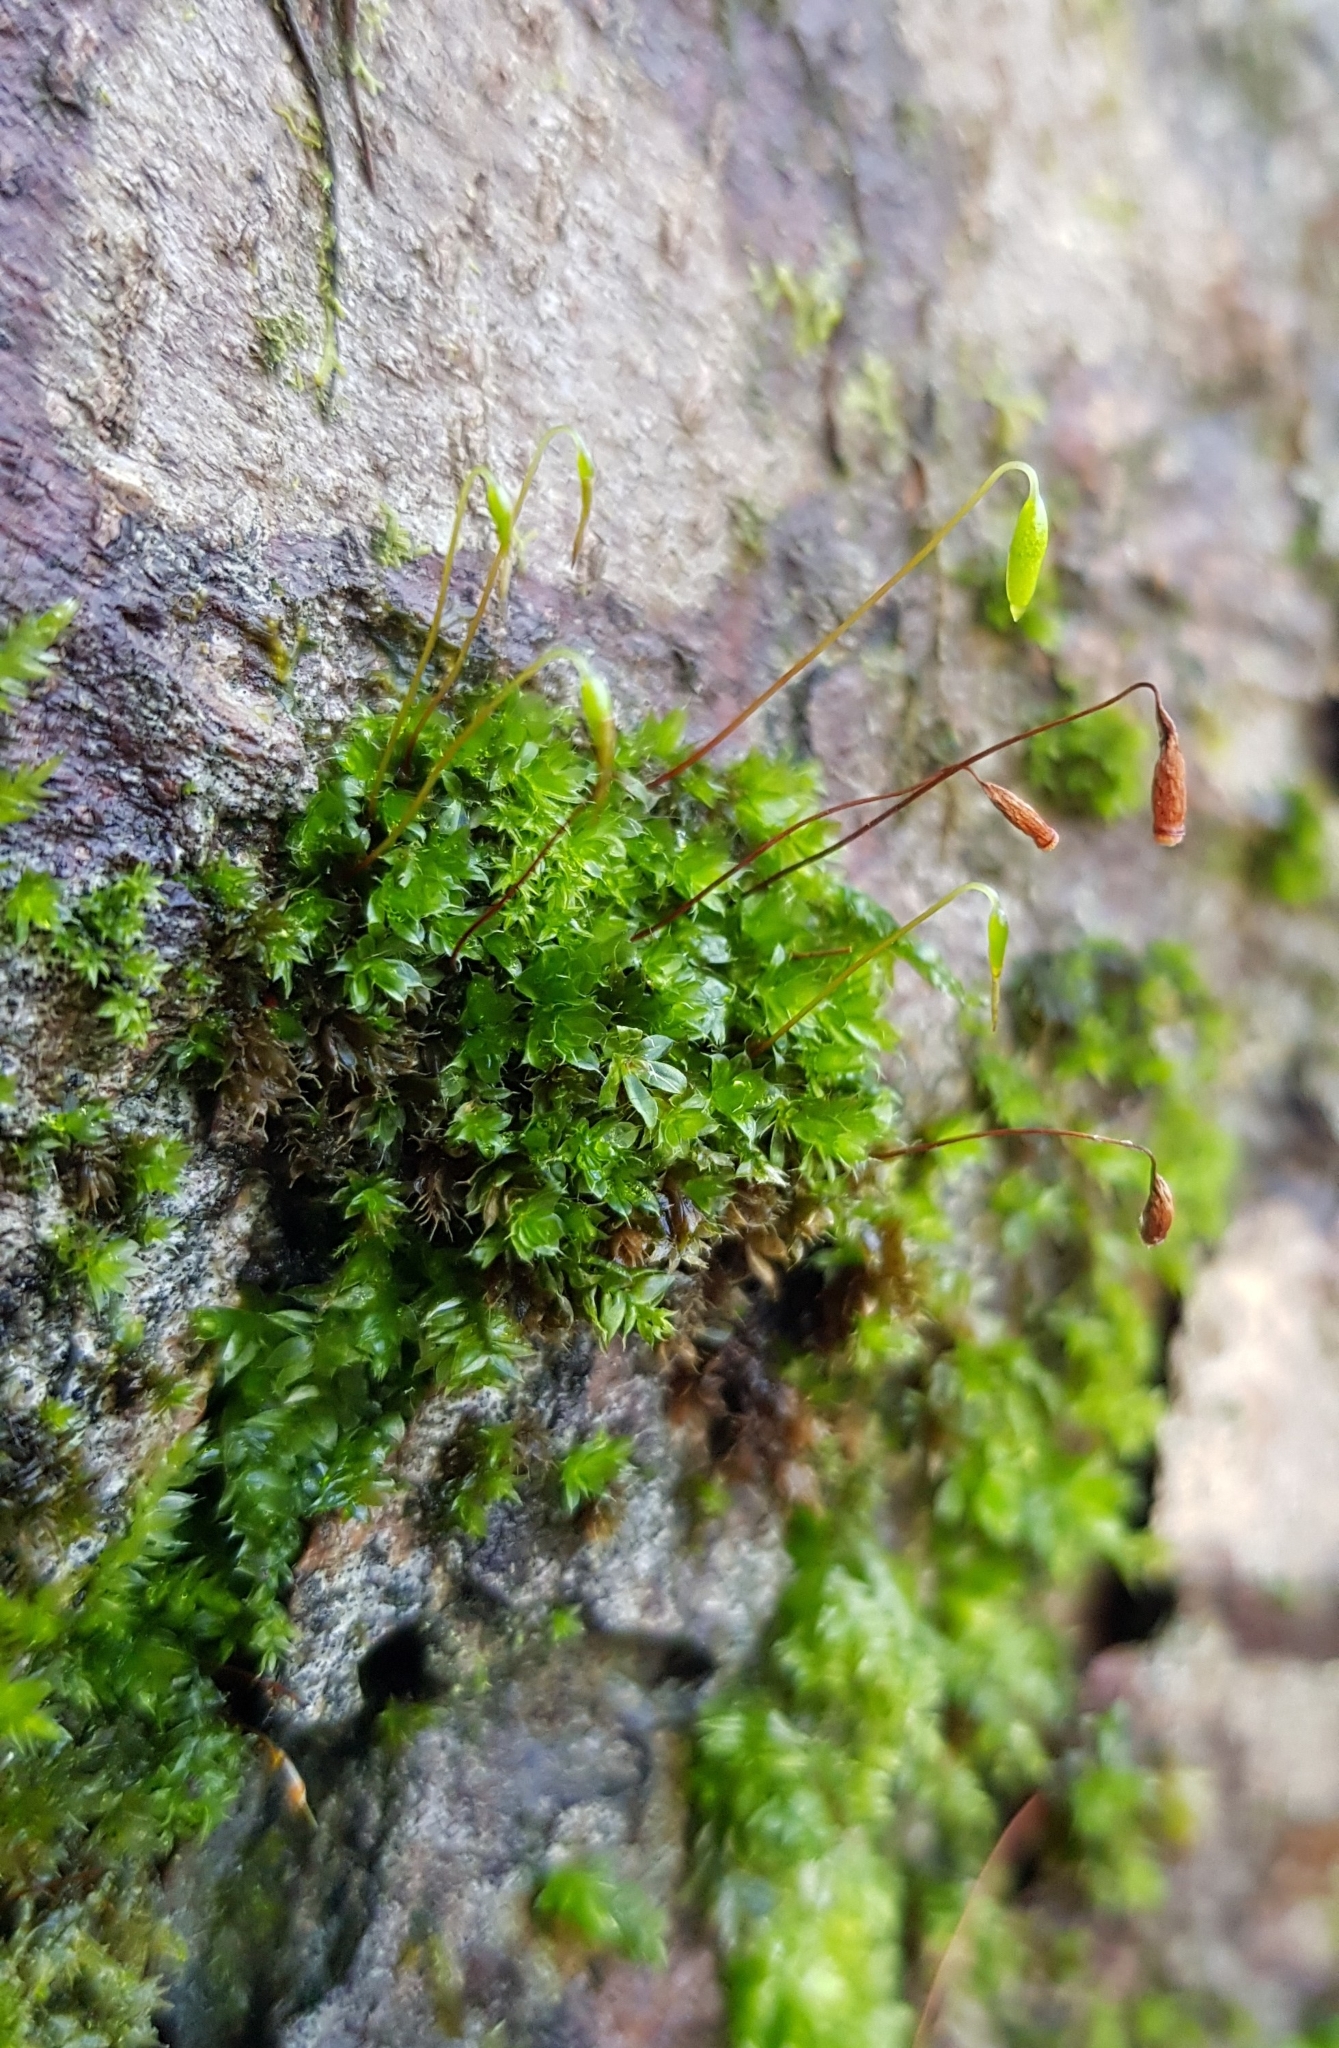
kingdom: Plantae
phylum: Bryophyta
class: Bryopsida
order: Bryales
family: Bryaceae
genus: Rosulabryum
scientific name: Rosulabryum capillare
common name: Capillary thread-moss
